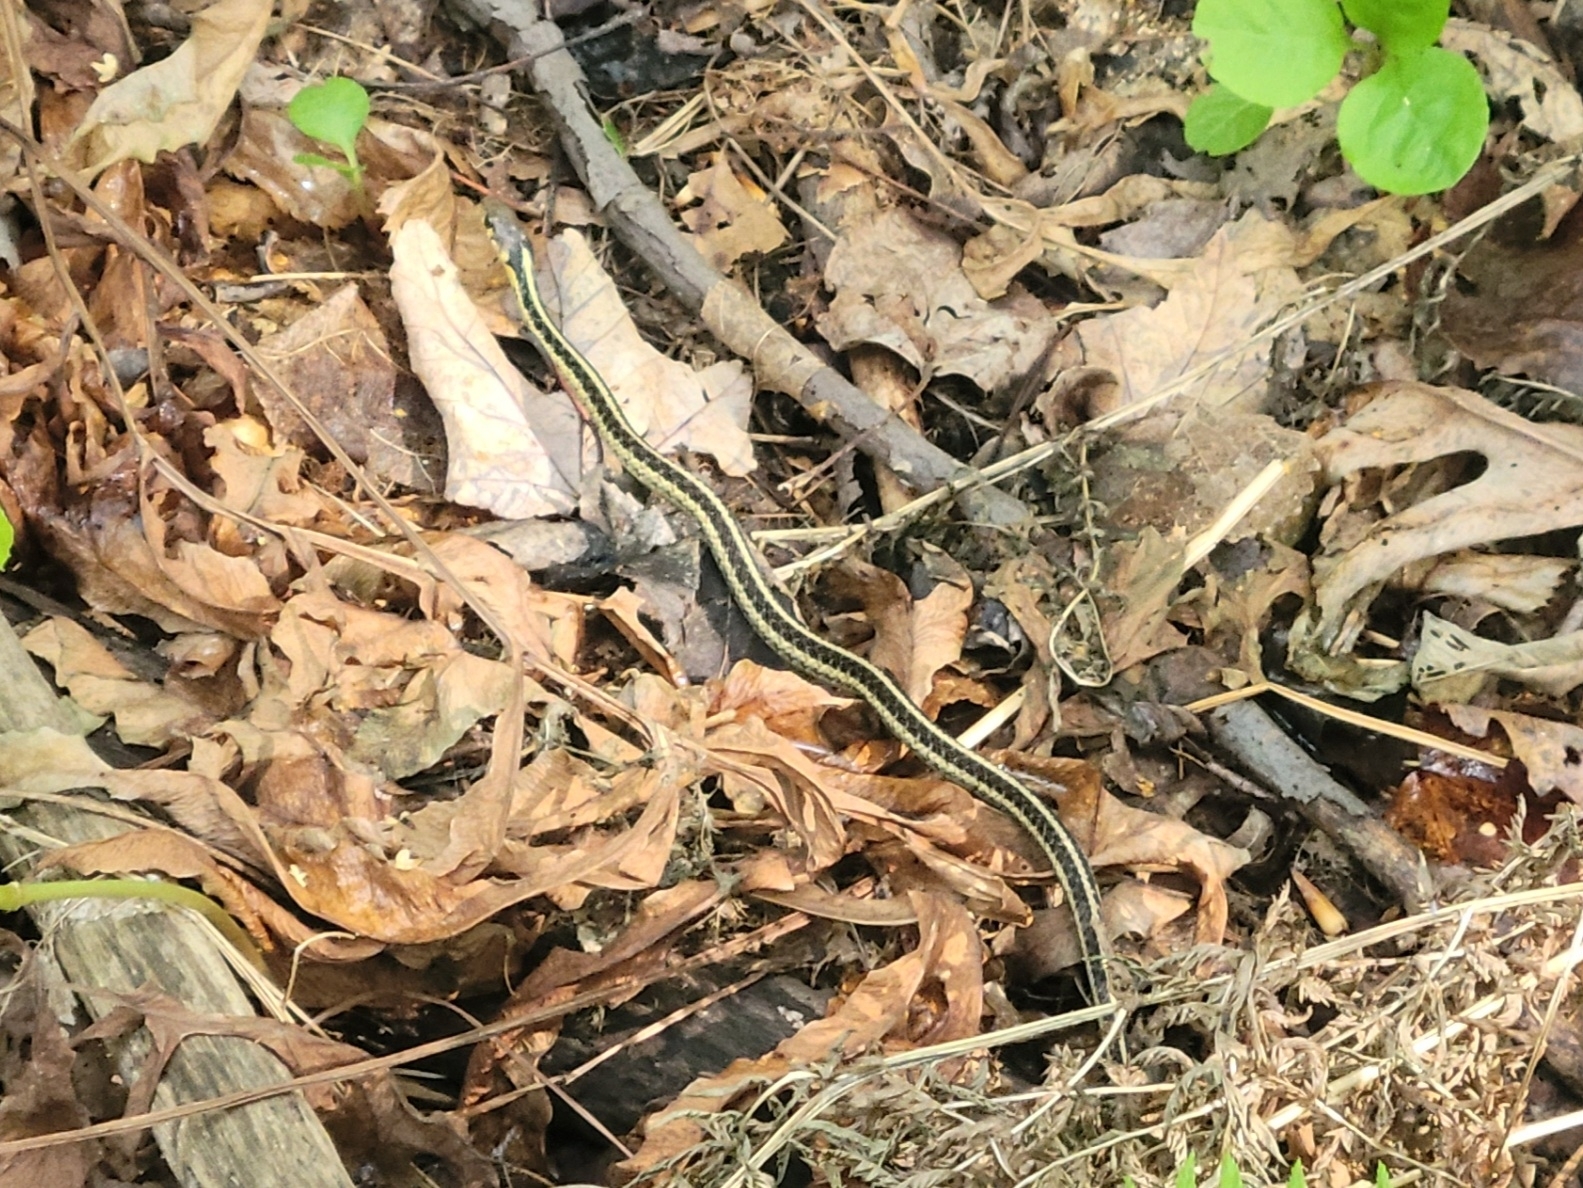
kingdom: Animalia
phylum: Chordata
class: Squamata
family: Colubridae
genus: Thamnophis
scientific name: Thamnophis sirtalis
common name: Common garter snake
